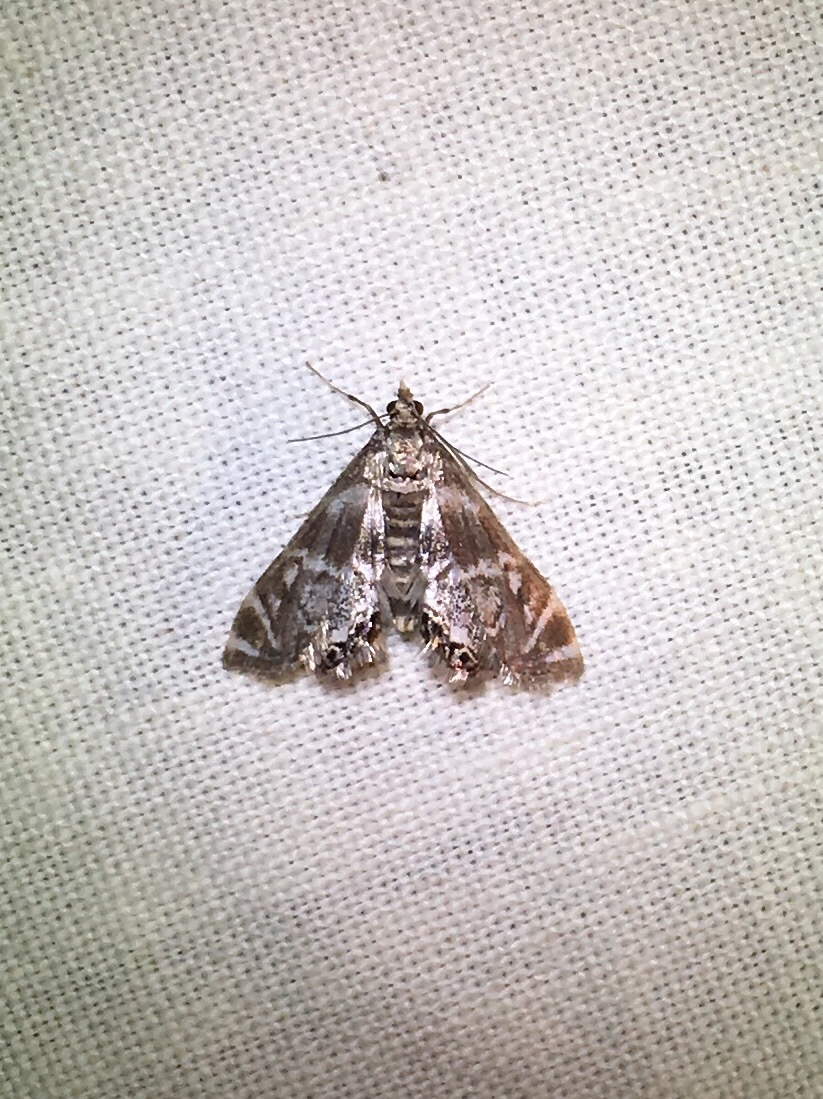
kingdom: Animalia
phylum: Arthropoda
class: Insecta
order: Lepidoptera
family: Crambidae
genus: Petrophila
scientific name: Petrophila canadensis
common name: Canadian petrophila
